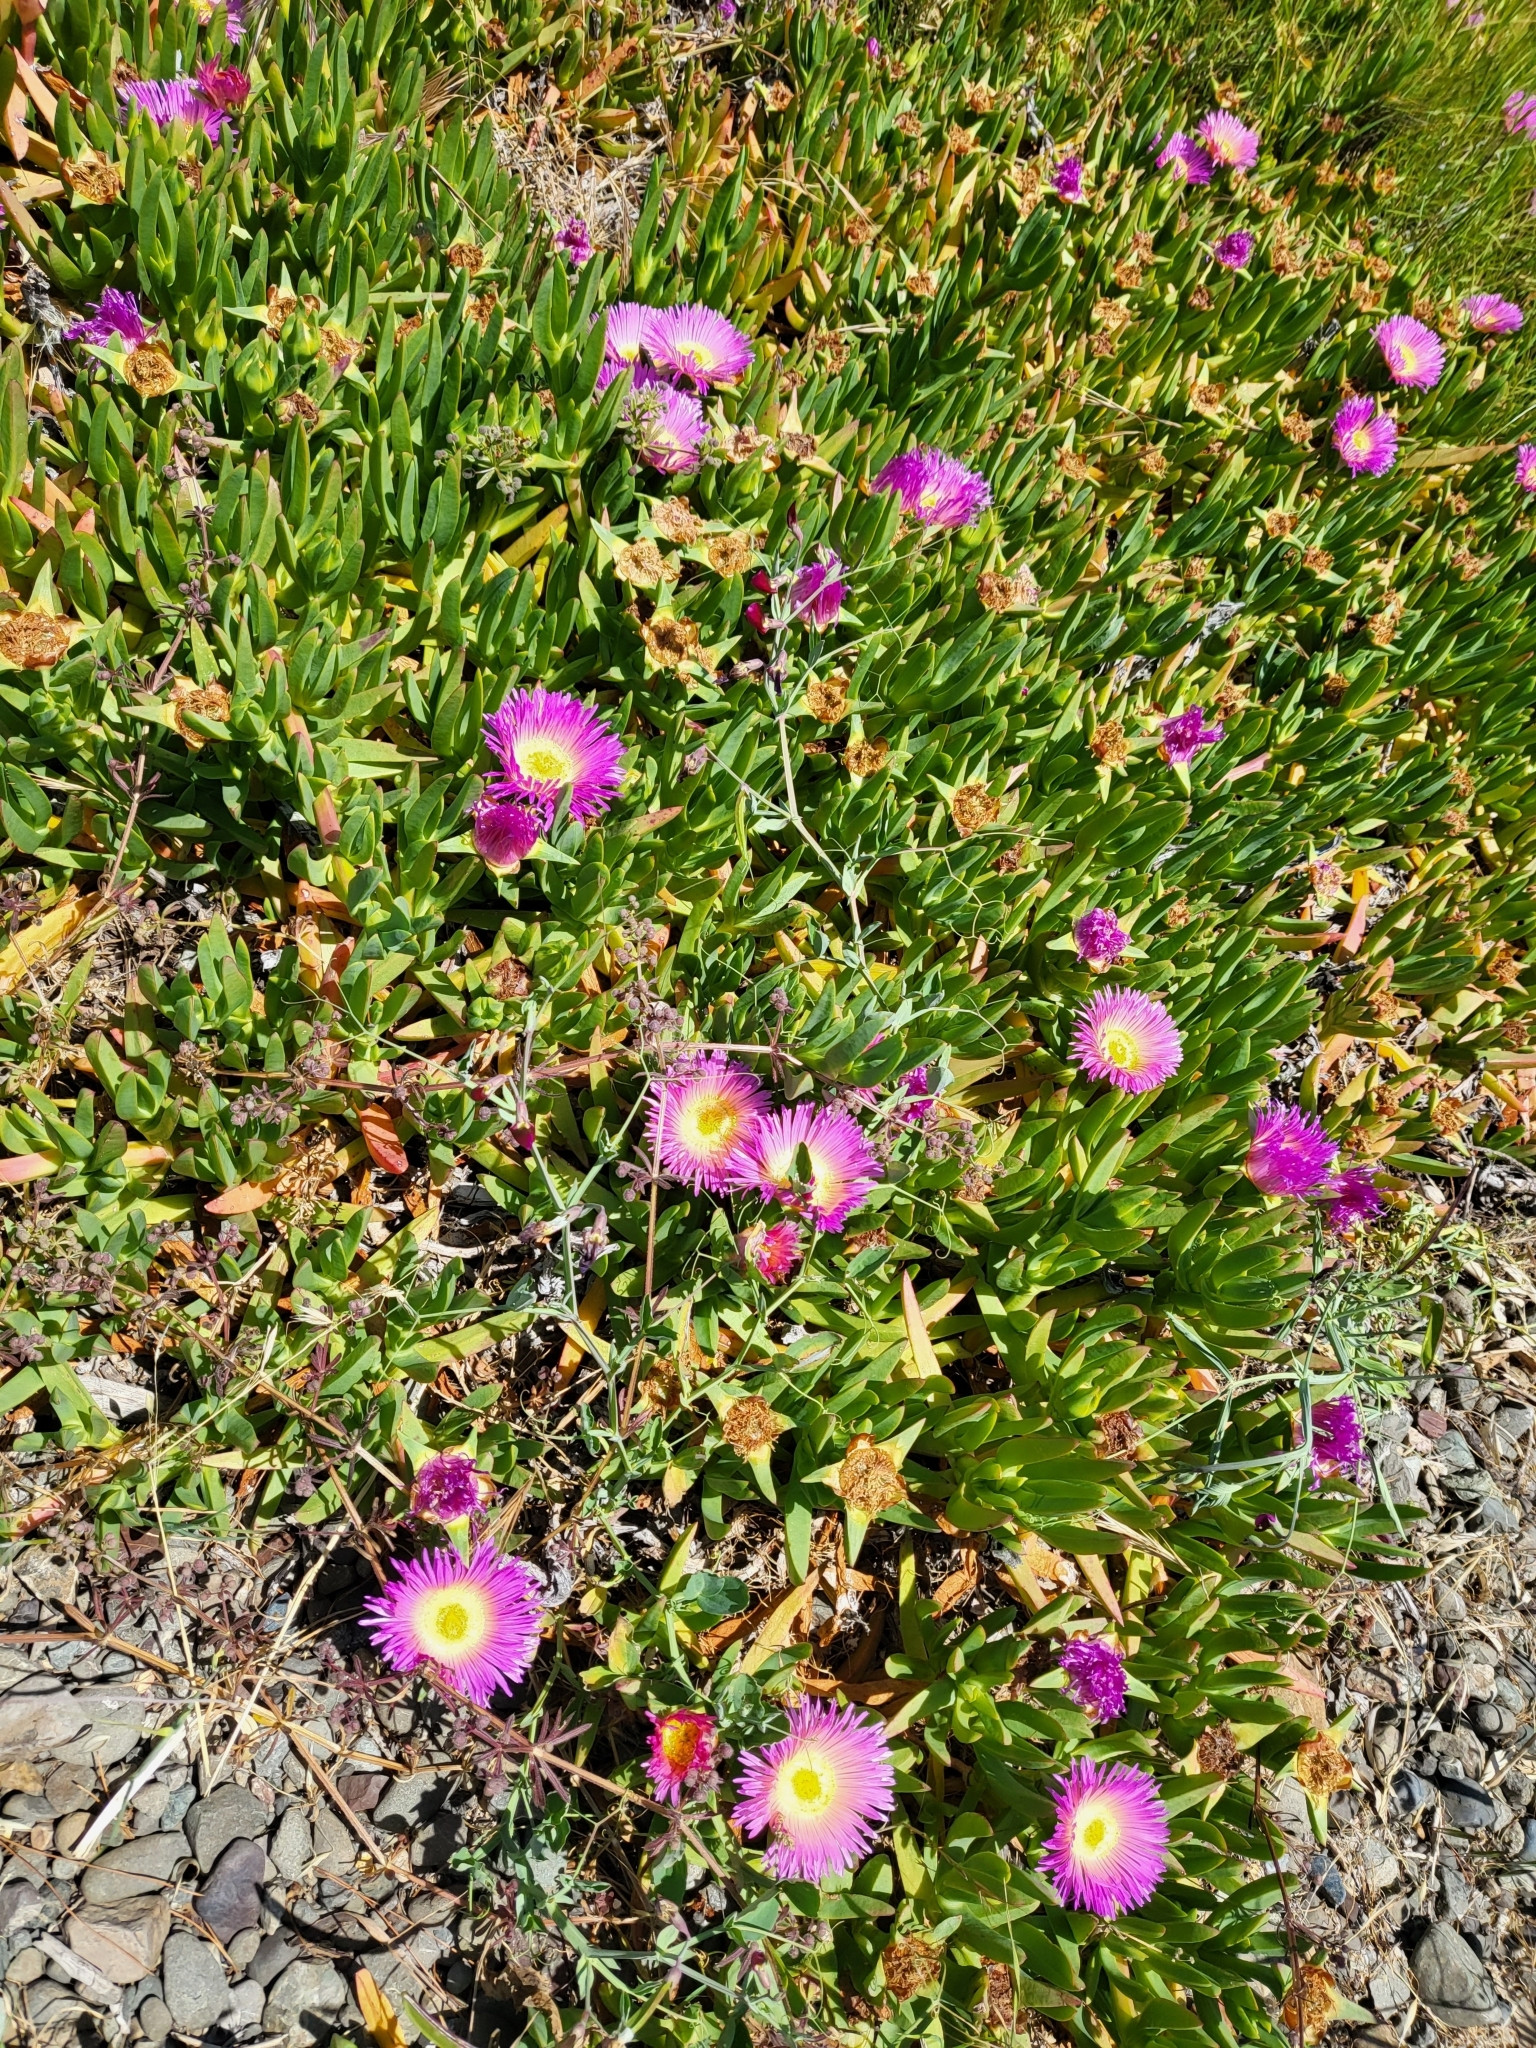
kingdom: Plantae
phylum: Tracheophyta
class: Magnoliopsida
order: Caryophyllales
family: Aizoaceae
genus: Carpobrotus
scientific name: Carpobrotus chilensis
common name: Sea fig
